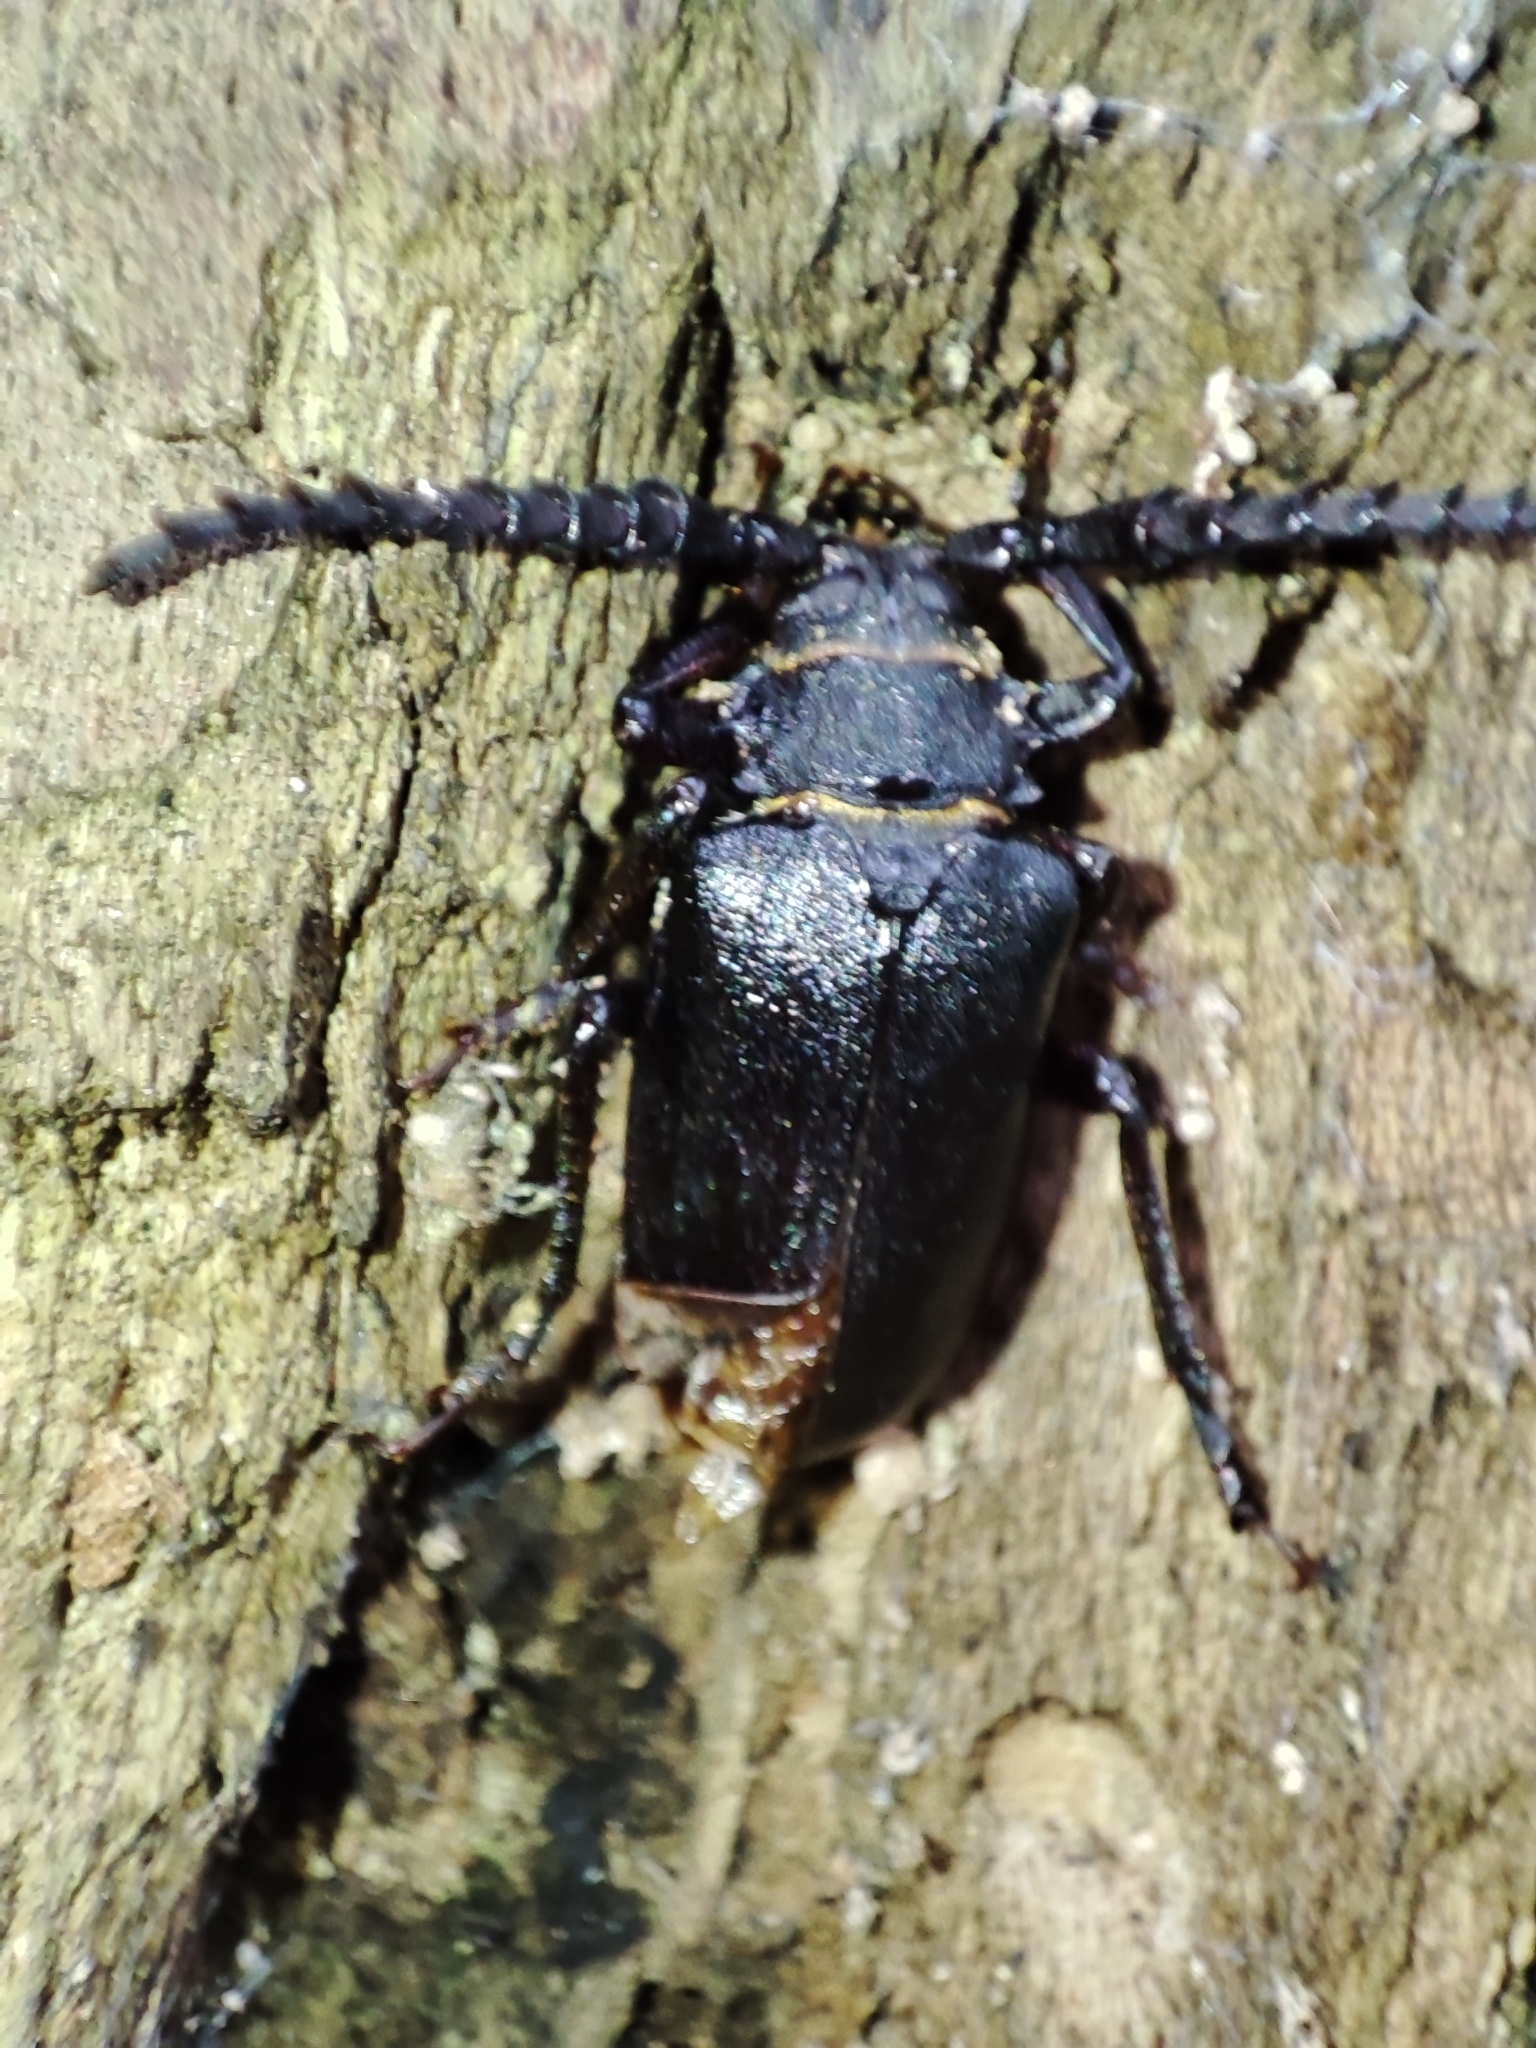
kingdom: Animalia
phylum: Arthropoda
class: Insecta
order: Coleoptera
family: Cerambycidae
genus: Prionus
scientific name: Prionus coriarius
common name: Tanner beetle
